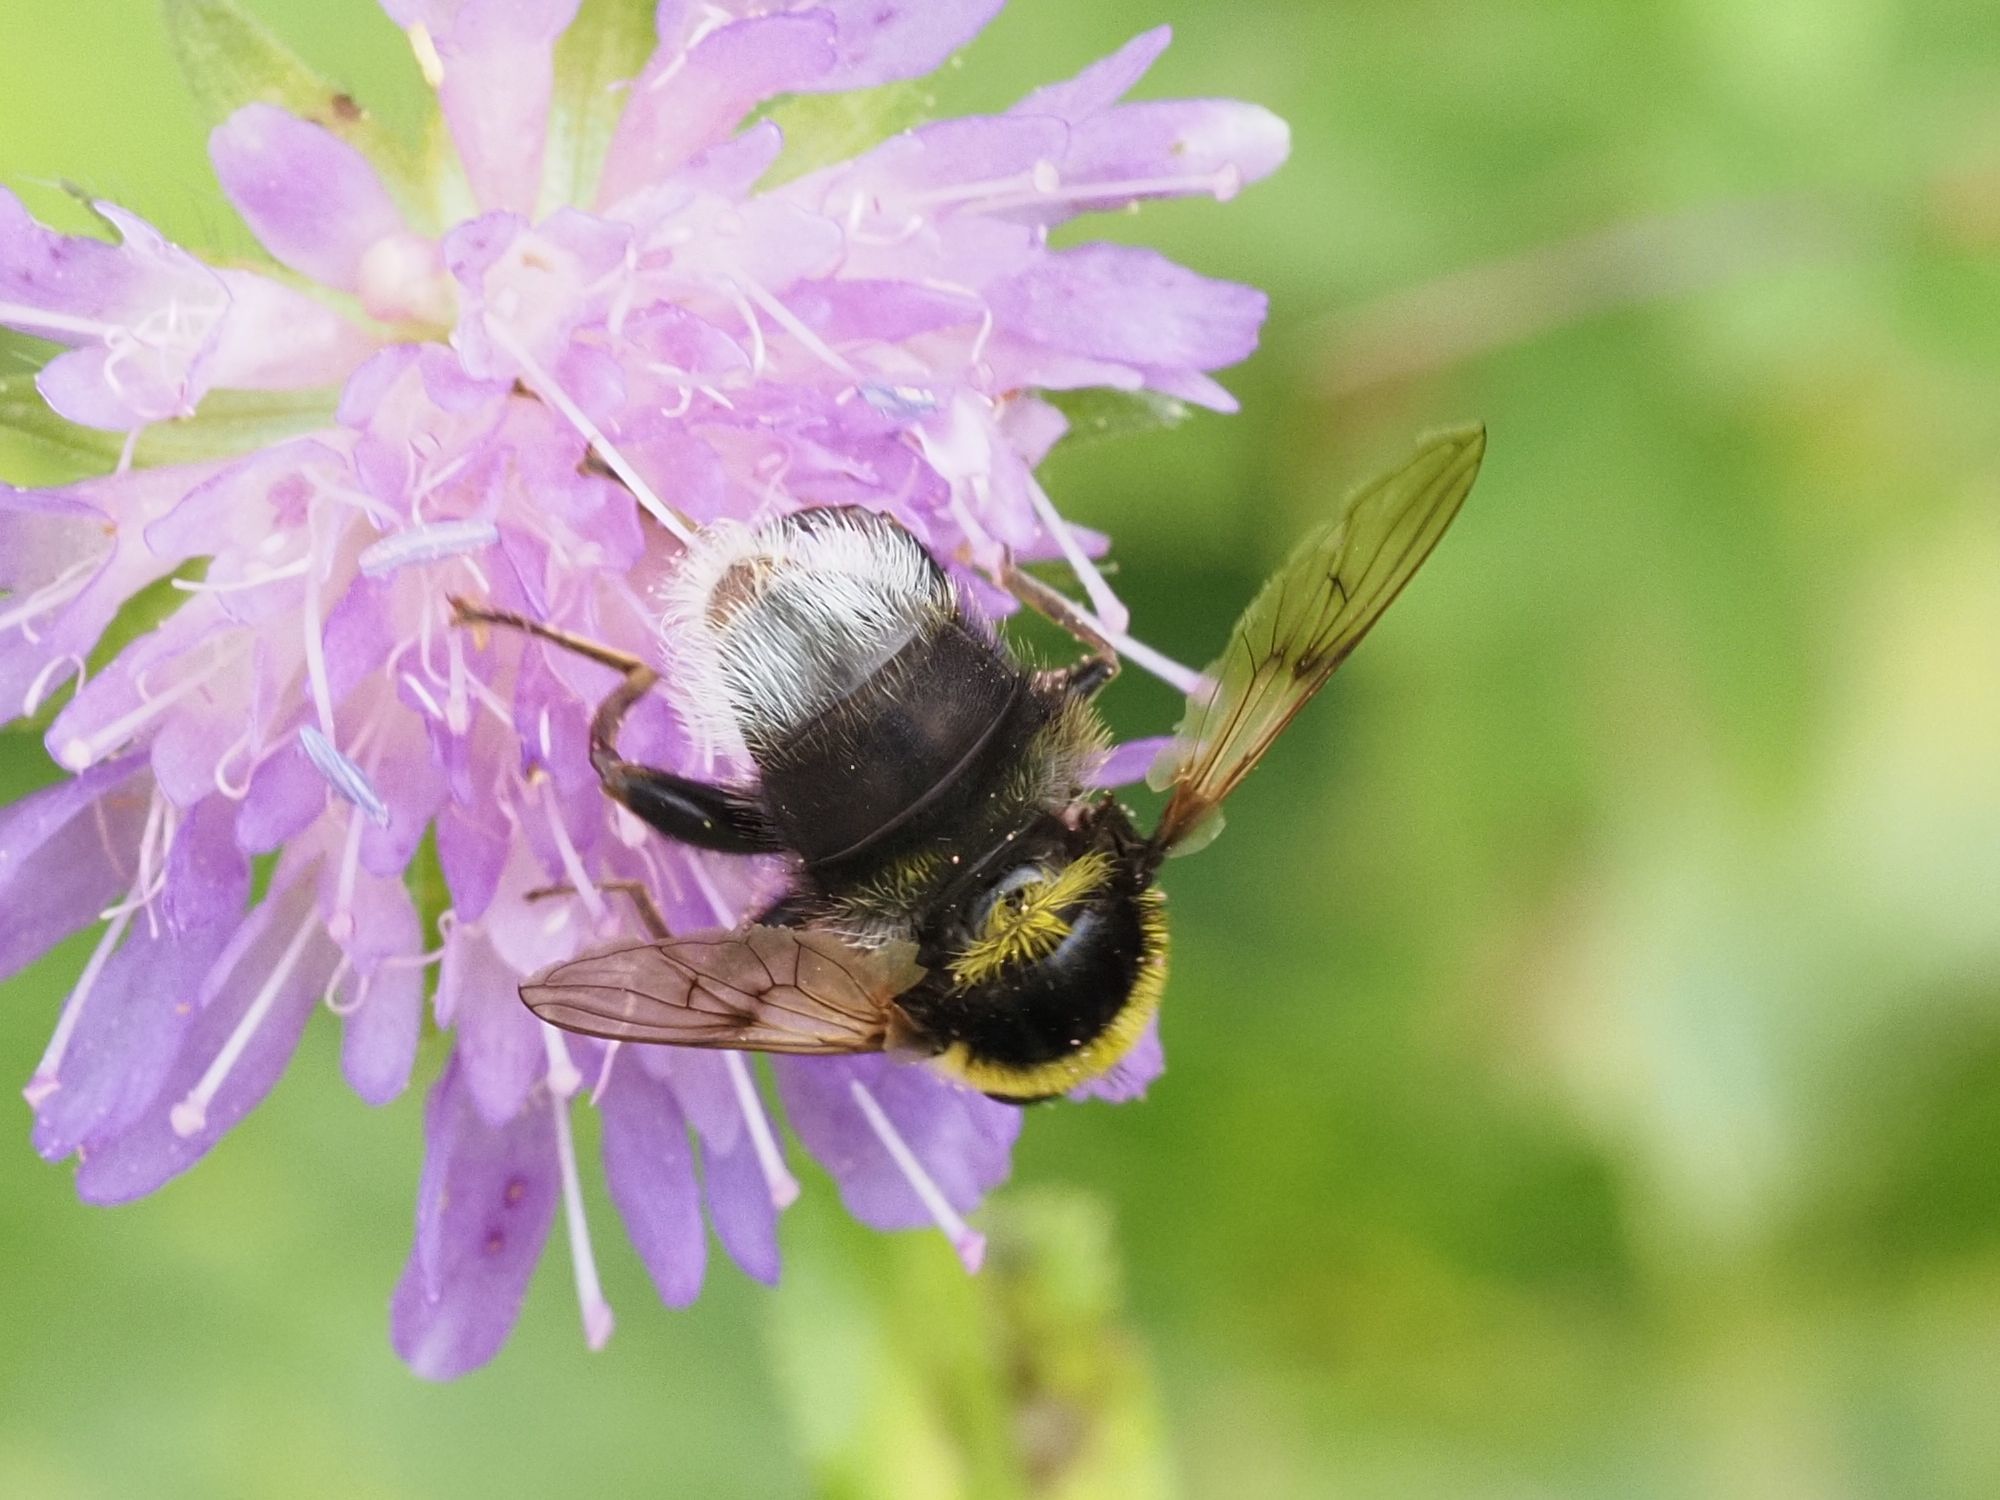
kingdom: Animalia
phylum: Arthropoda
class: Insecta
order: Diptera
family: Syrphidae
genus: Sericomyia
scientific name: Sericomyia bombiformis
